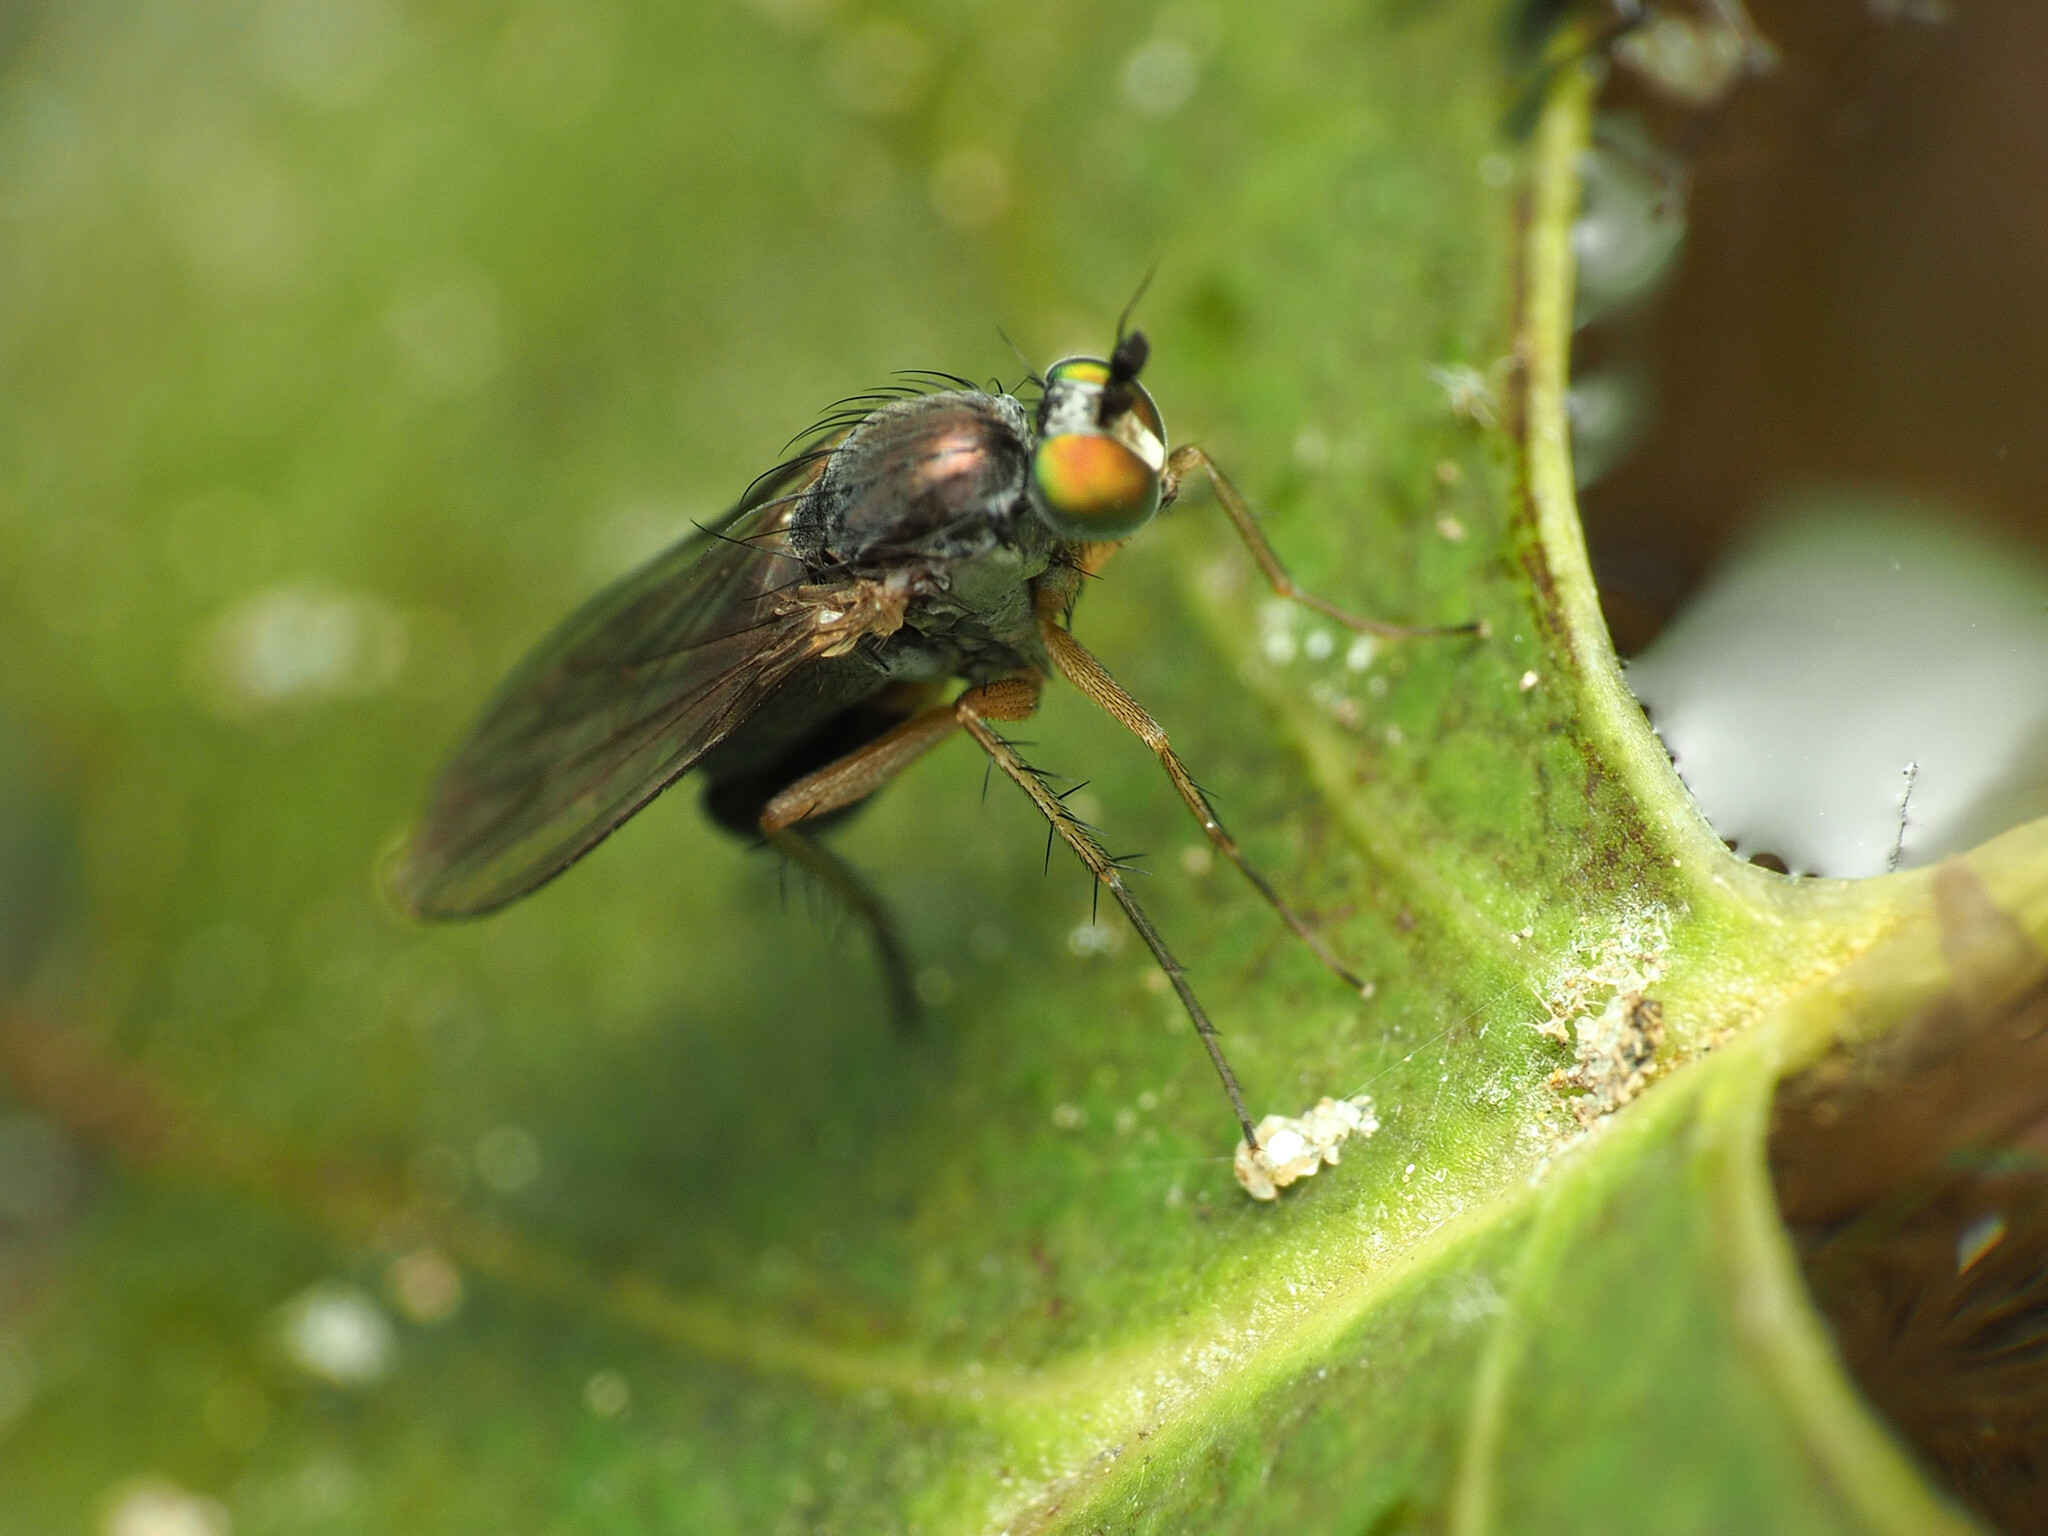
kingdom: Animalia
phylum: Arthropoda
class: Insecta
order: Diptera
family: Dolichopodidae
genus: Gymnopternus
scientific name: Gymnopternus meniscus
